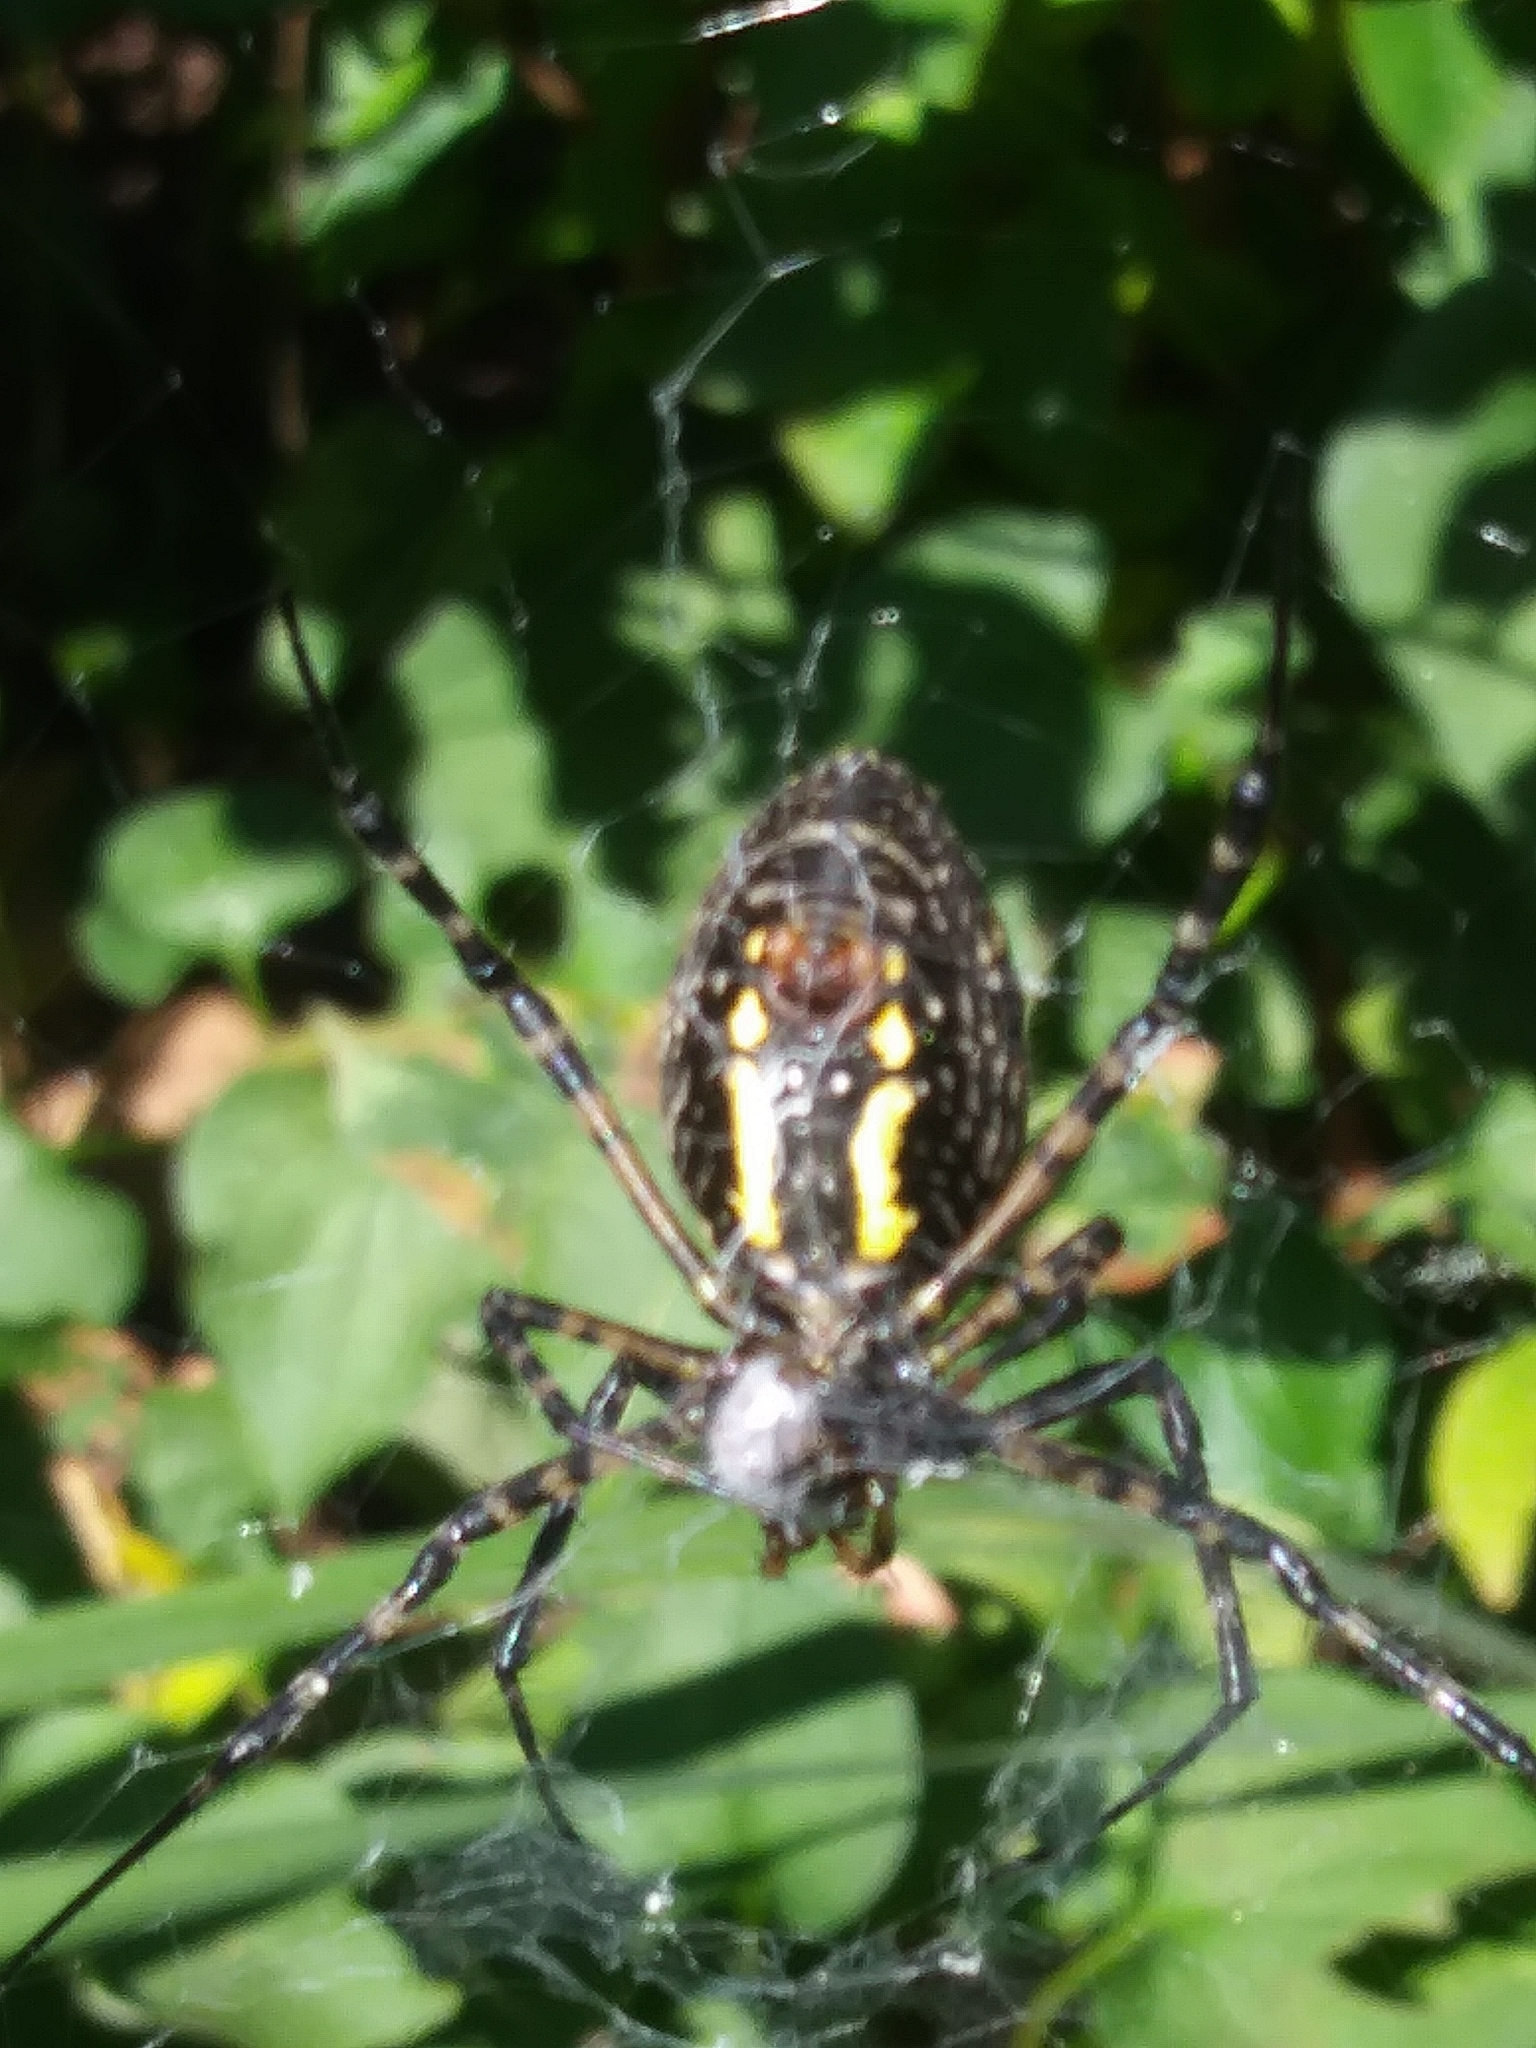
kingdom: Animalia
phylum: Arthropoda
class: Arachnida
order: Araneae
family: Araneidae
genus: Argiope
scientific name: Argiope aurantia
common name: Orb weavers
